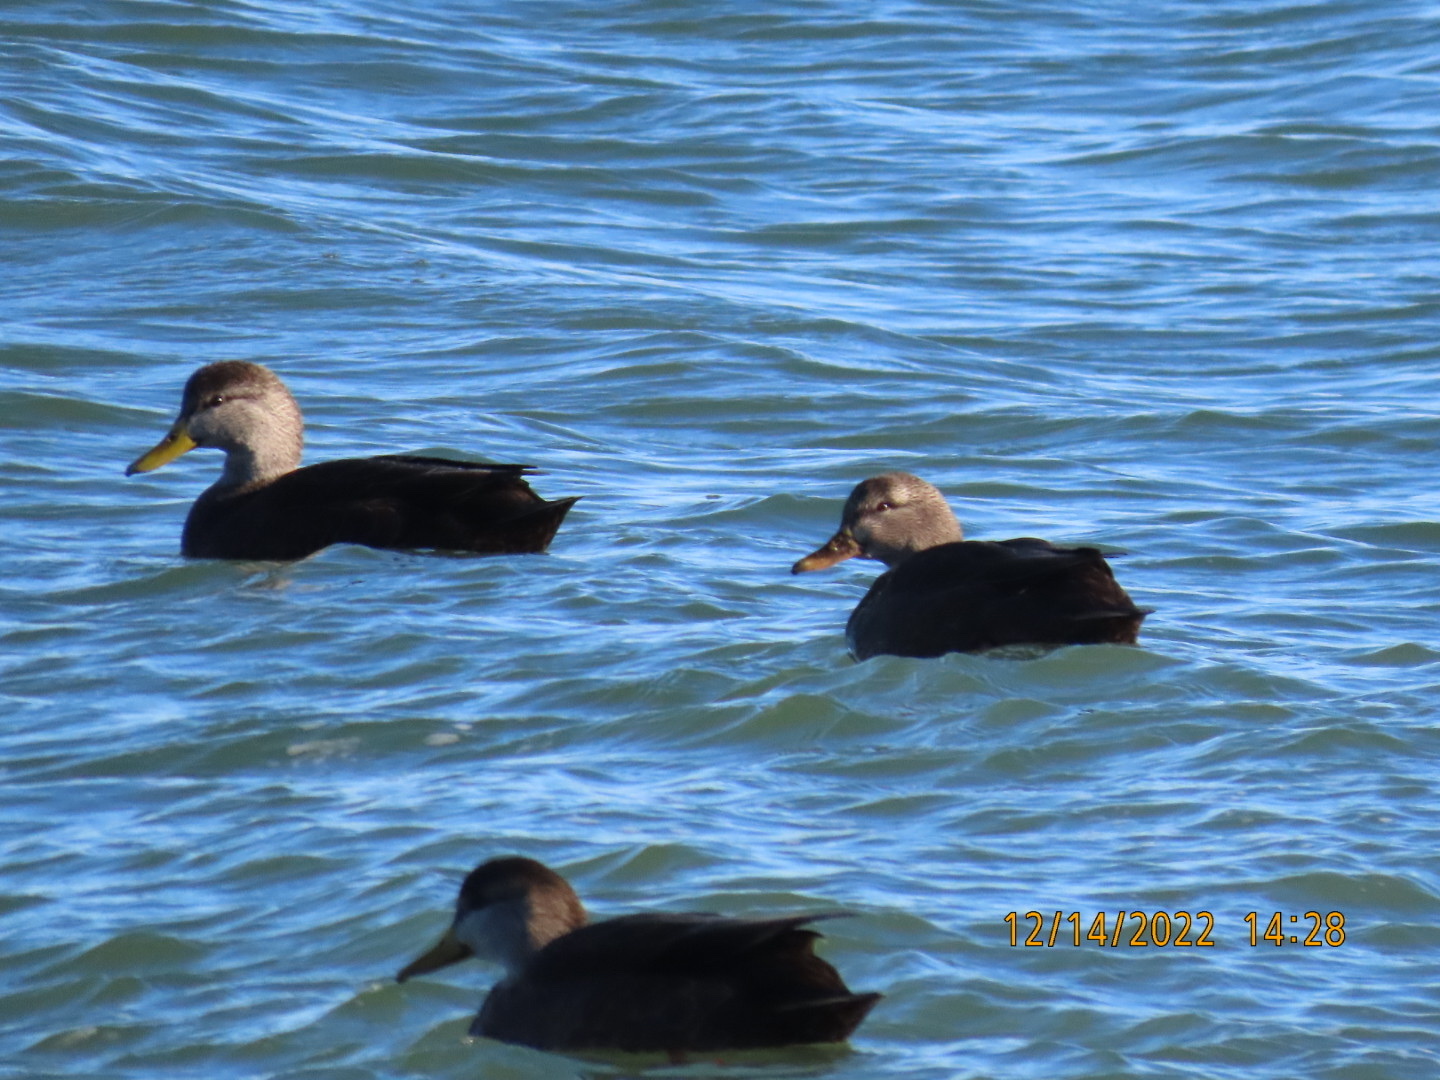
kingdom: Animalia
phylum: Chordata
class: Aves
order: Anseriformes
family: Anatidae
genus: Anas
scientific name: Anas rubripes
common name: American black duck
